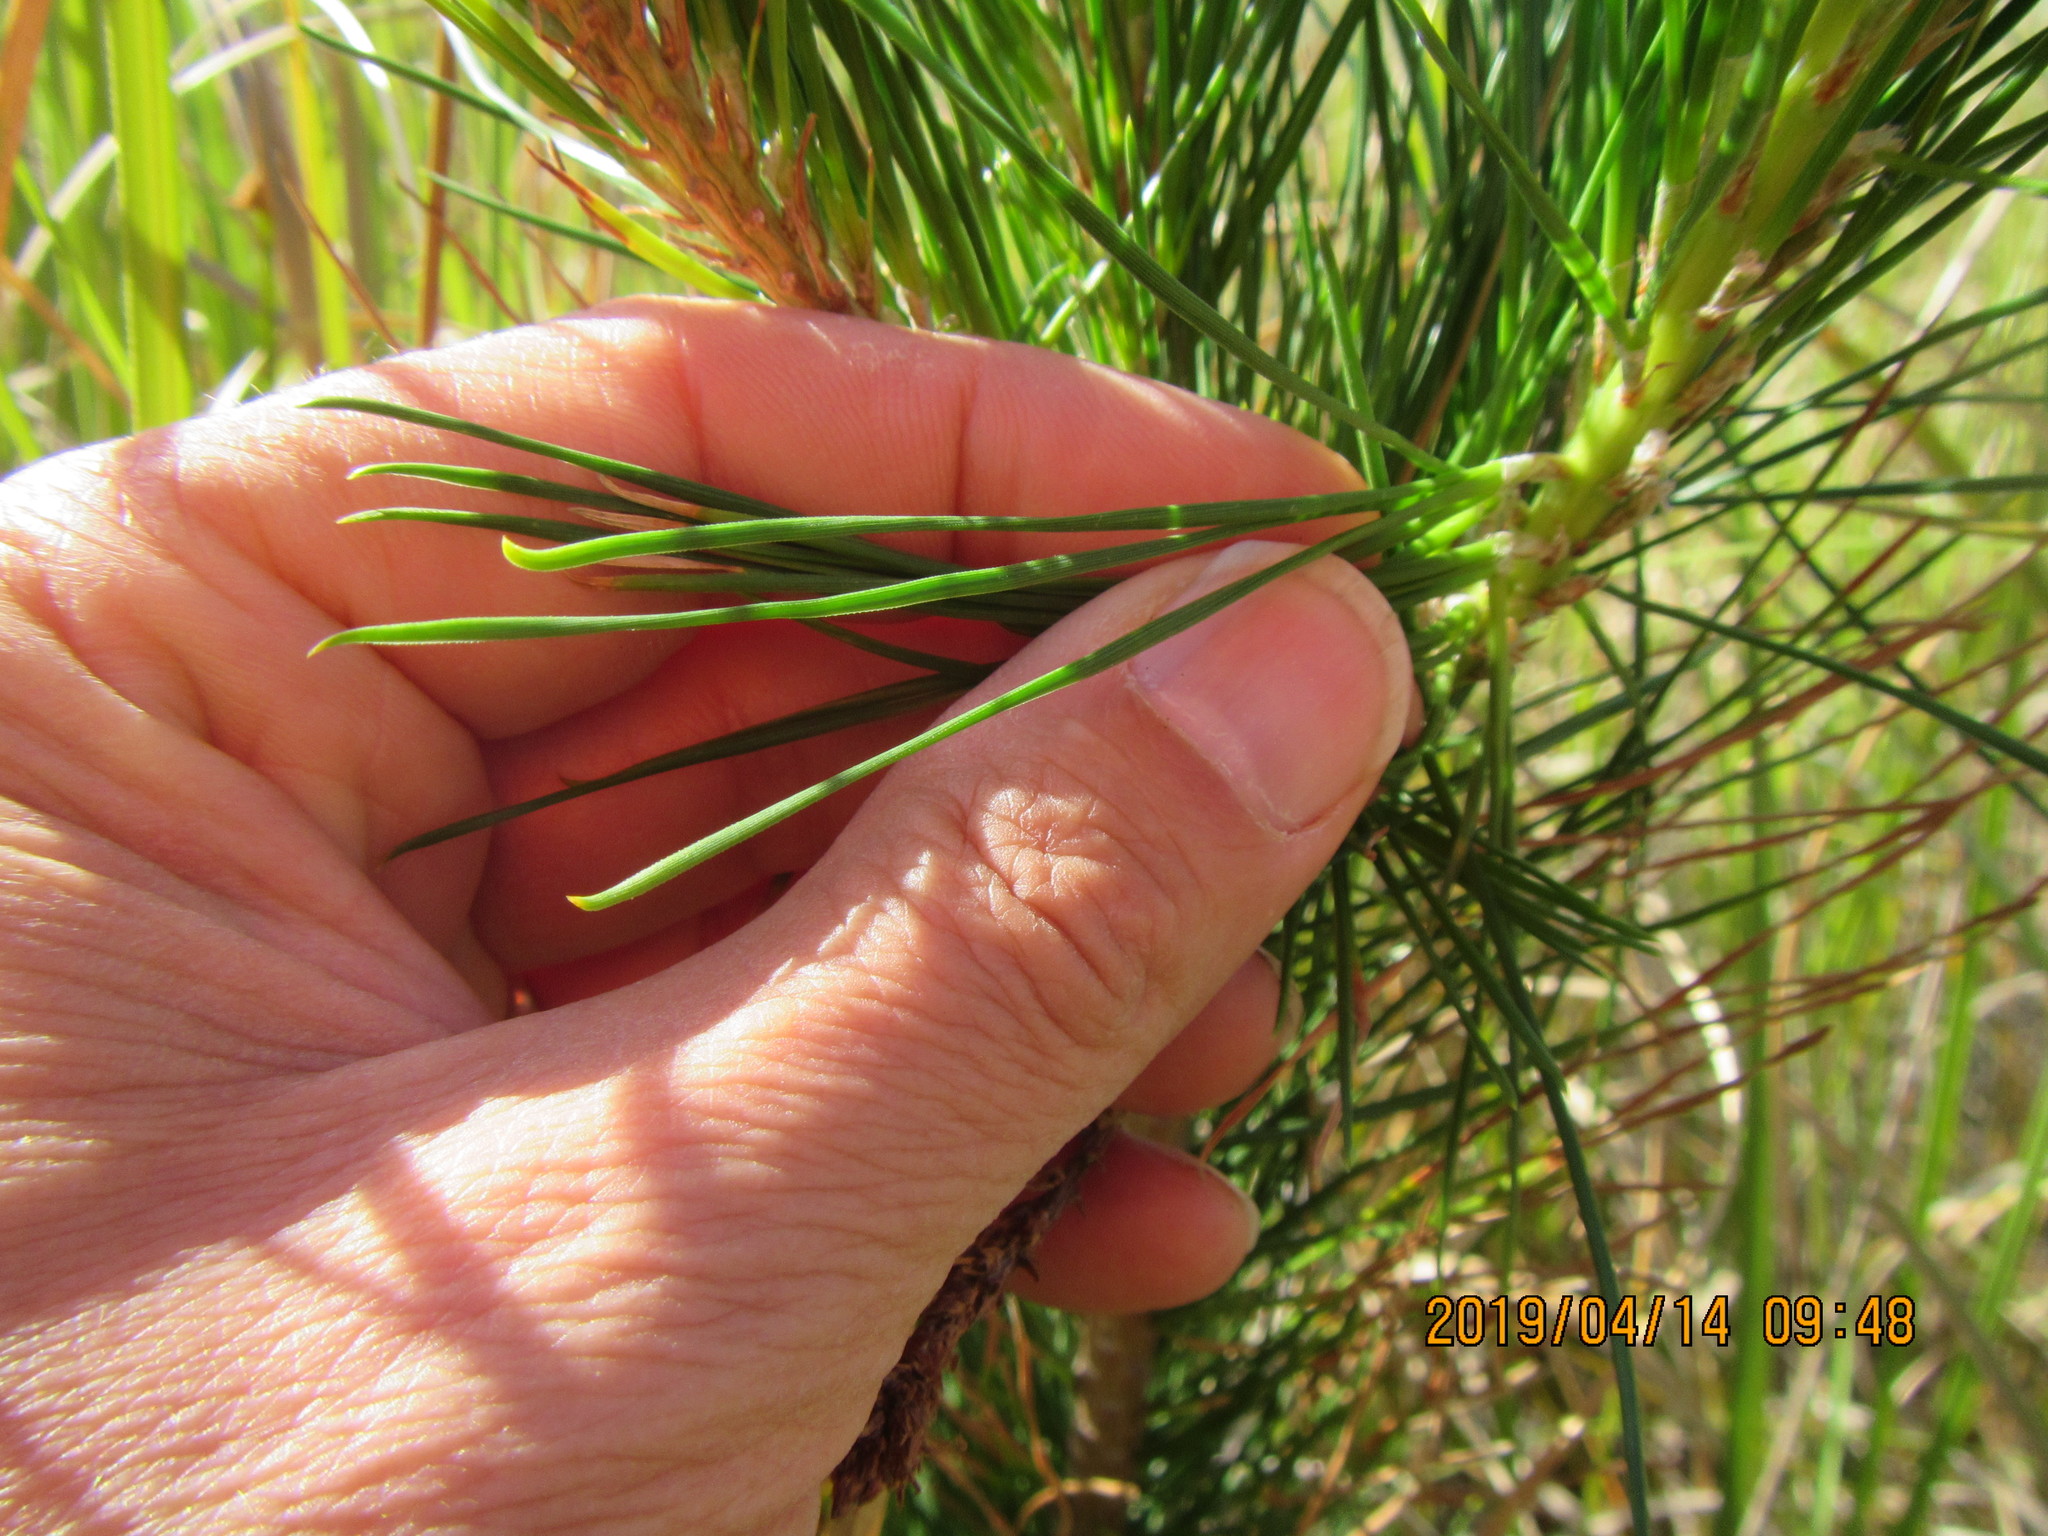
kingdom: Plantae
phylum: Tracheophyta
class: Pinopsida
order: Pinales
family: Pinaceae
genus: Pinus
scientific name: Pinus radiata
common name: Monterey pine
